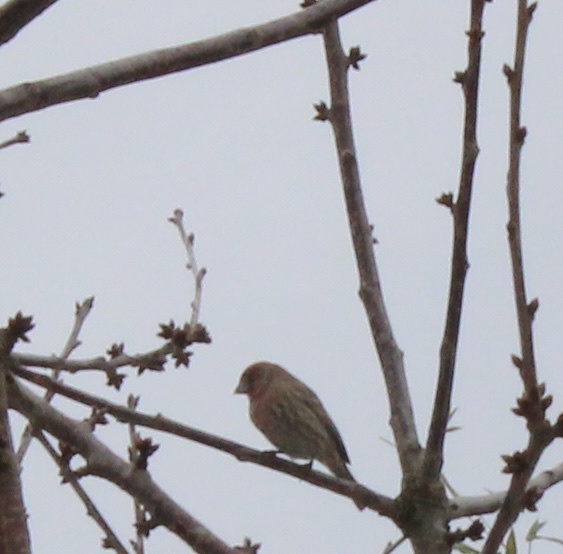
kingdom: Animalia
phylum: Chordata
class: Aves
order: Passeriformes
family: Fringillidae
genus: Haemorhous
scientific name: Haemorhous mexicanus
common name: House finch
